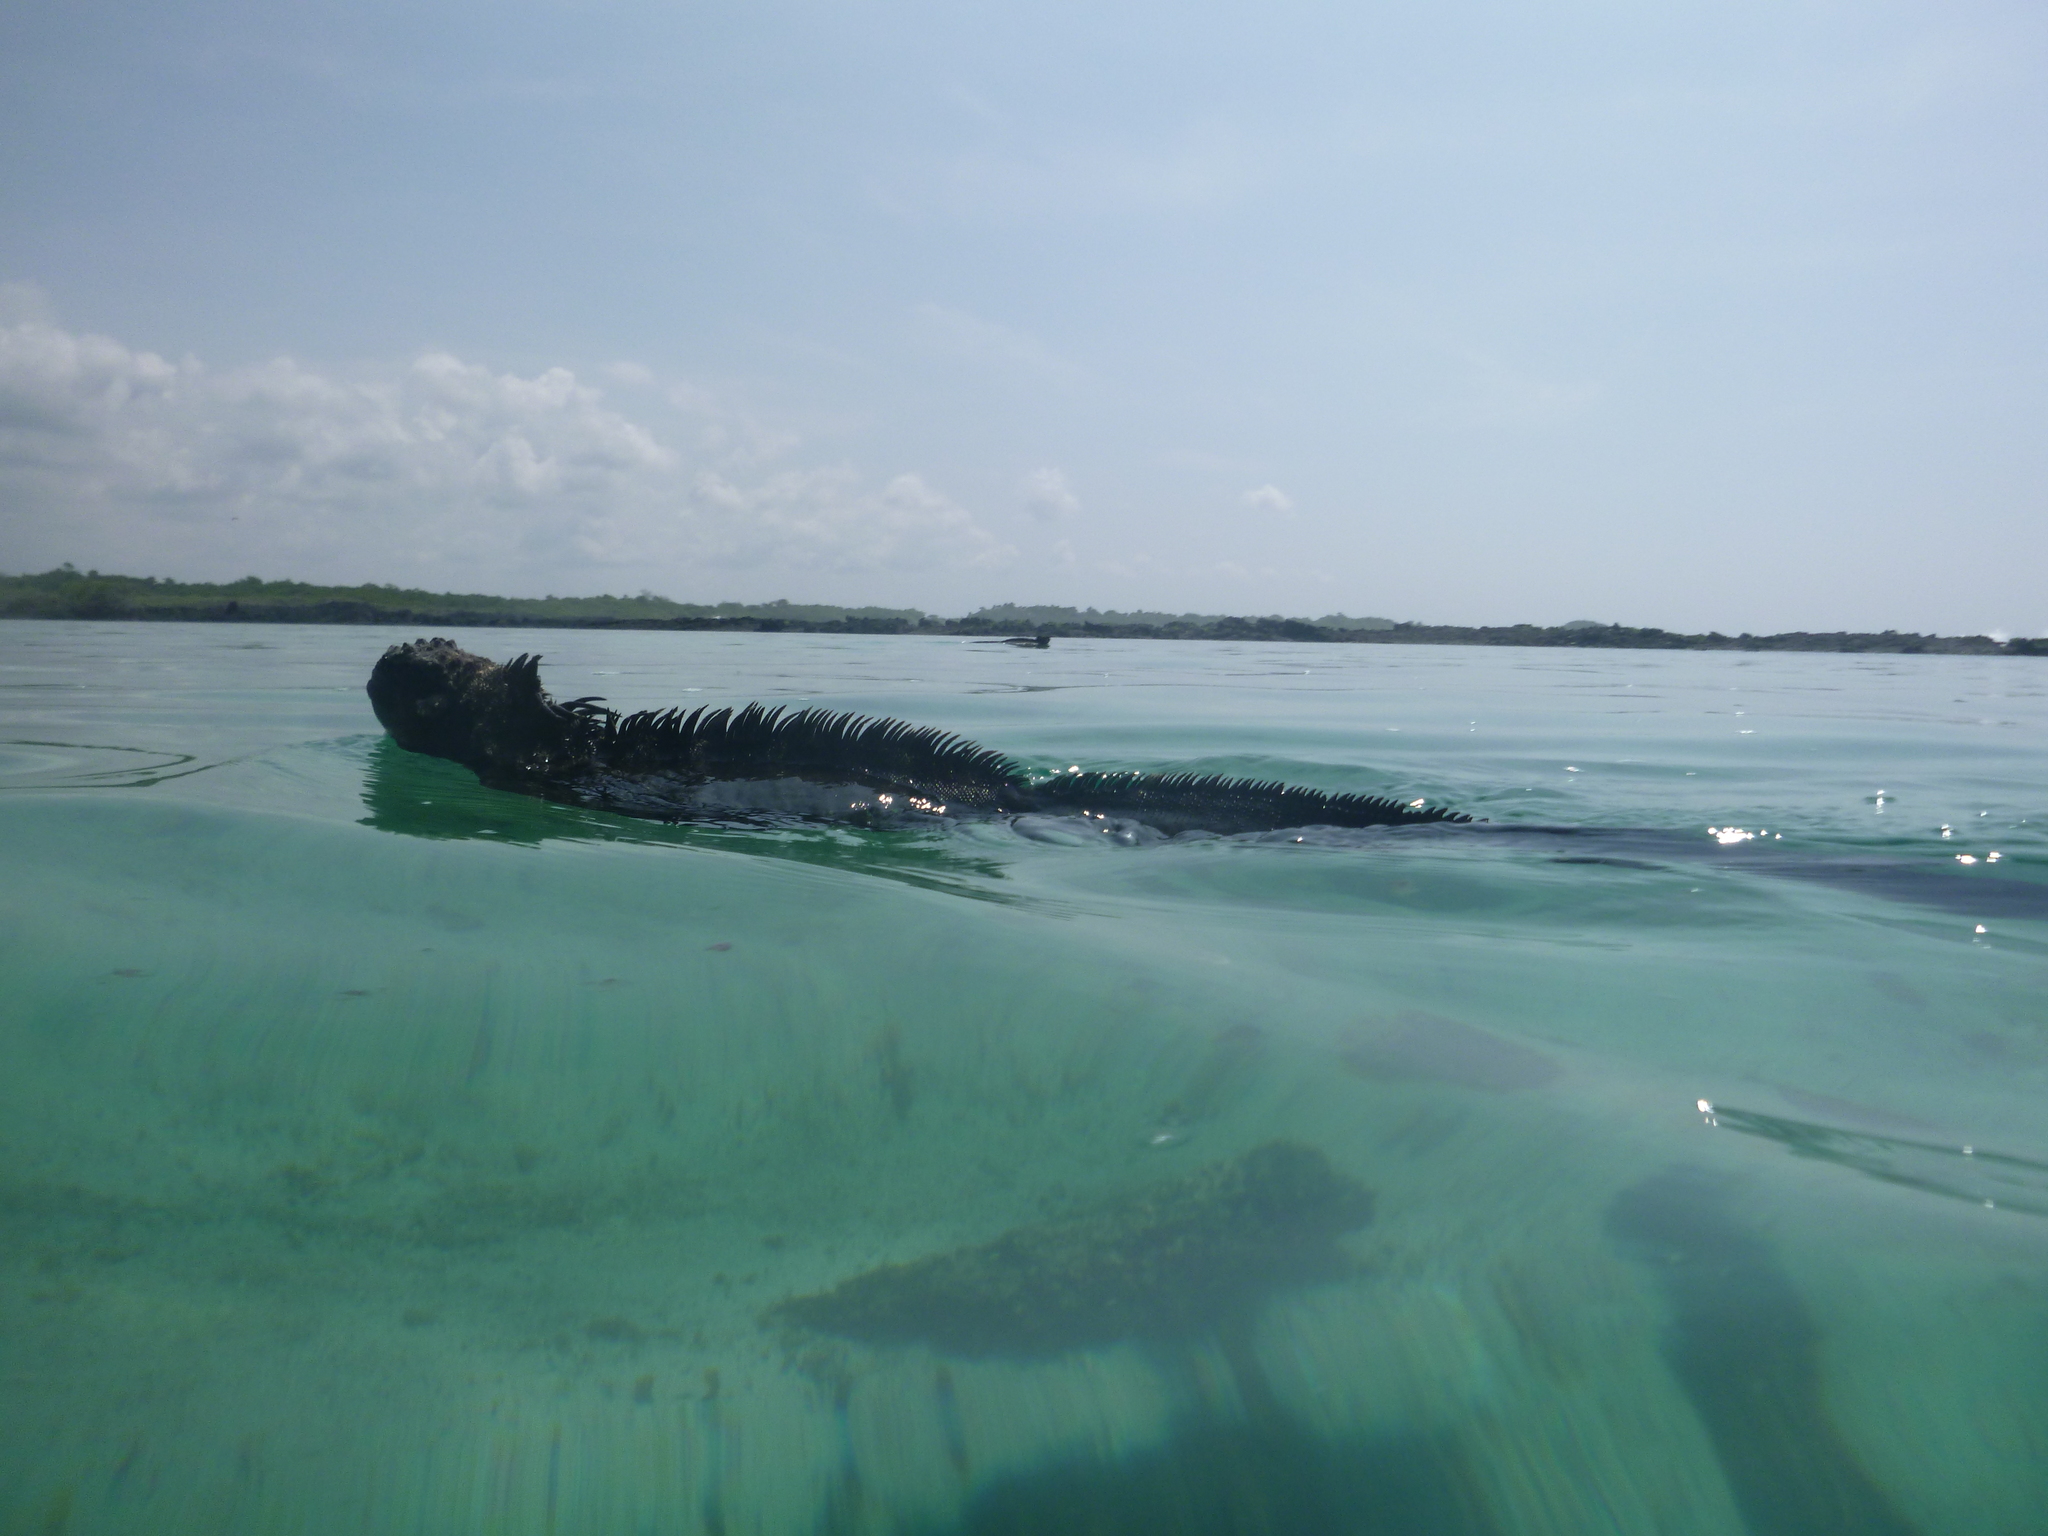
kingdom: Animalia
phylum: Chordata
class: Squamata
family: Iguanidae
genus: Amblyrhynchus
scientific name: Amblyrhynchus cristatus
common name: Marine iguana
